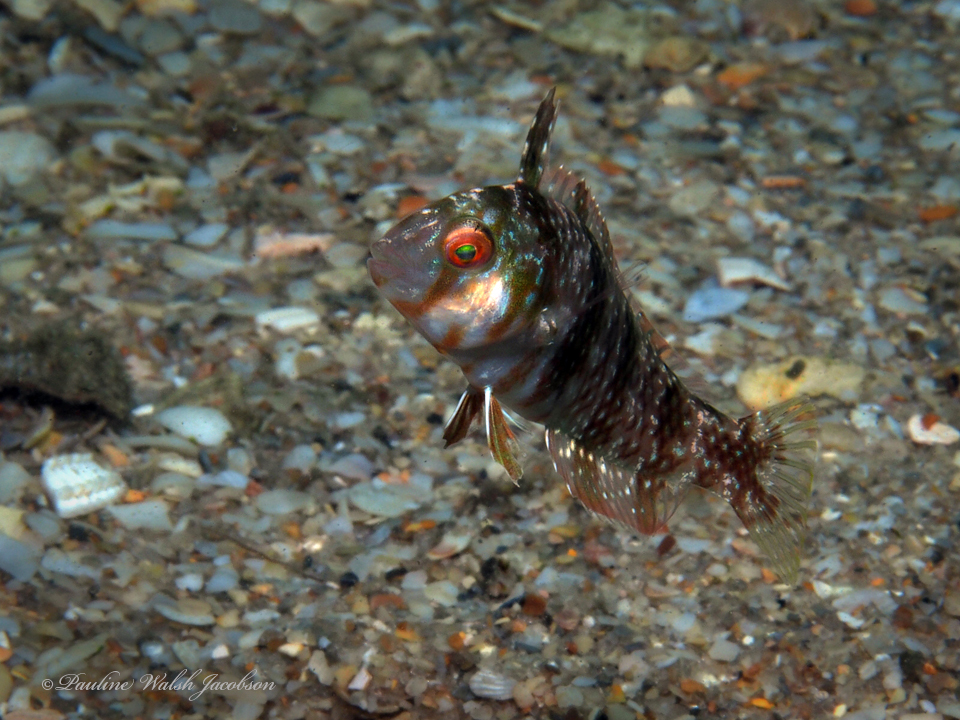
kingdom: Animalia
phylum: Chordata
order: Perciformes
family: Labridae
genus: Xyrichtys
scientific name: Xyrichtys splendens
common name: Green razorfish
